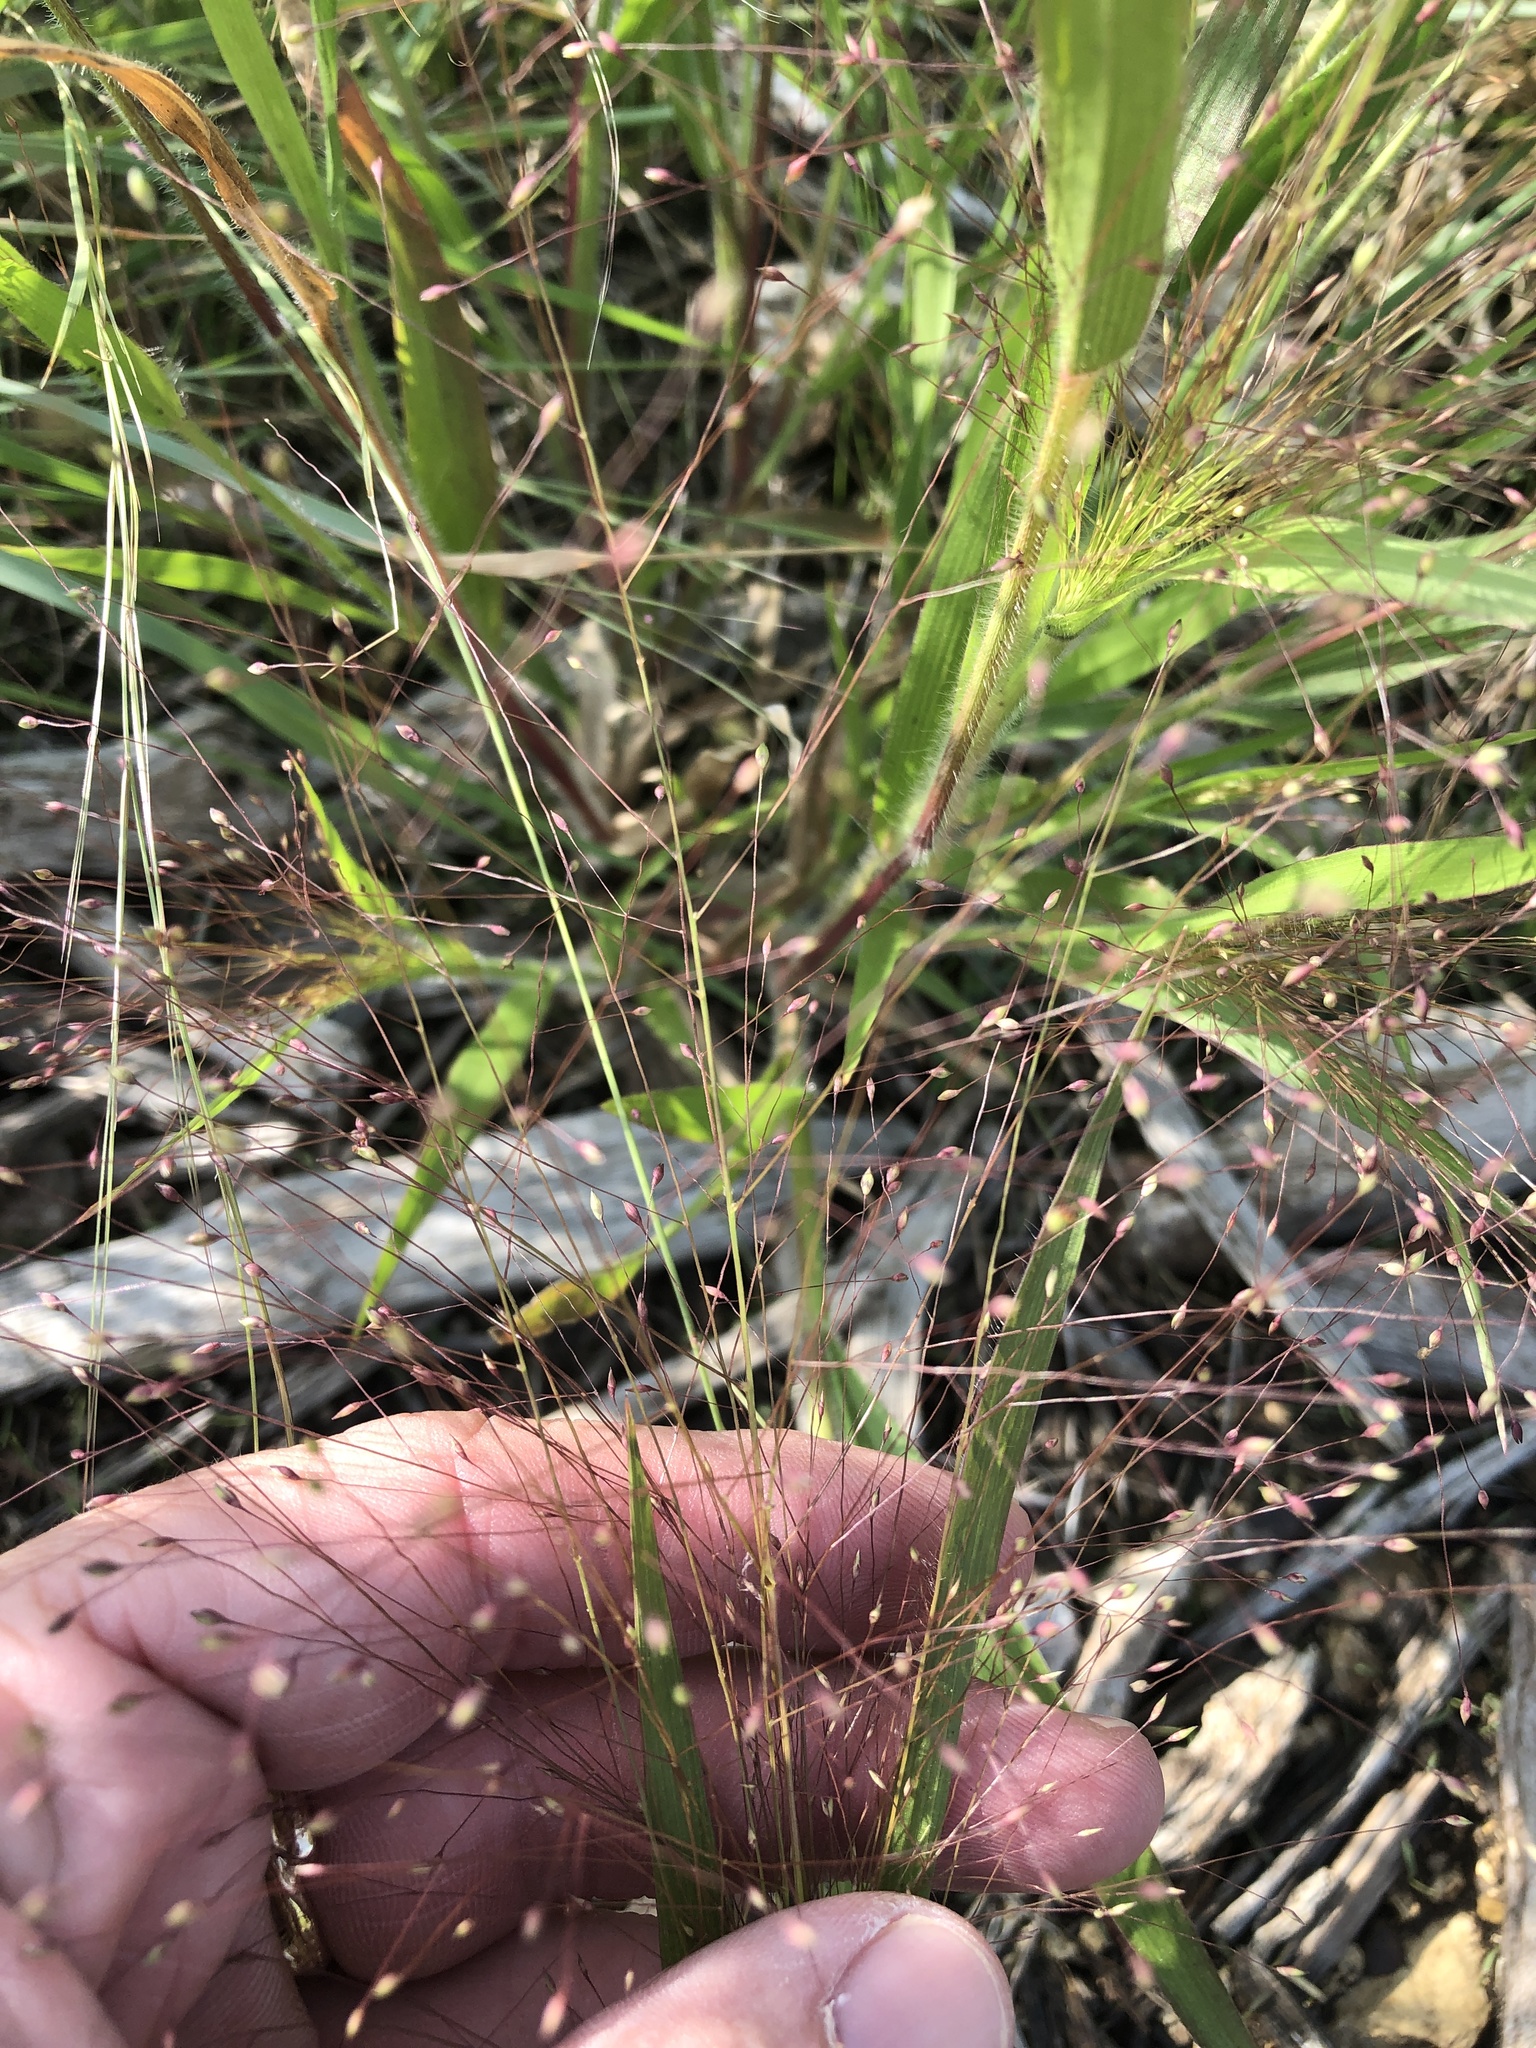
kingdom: Plantae
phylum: Tracheophyta
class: Liliopsida
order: Poales
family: Poaceae
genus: Panicum
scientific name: Panicum capillare
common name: Witch-grass
